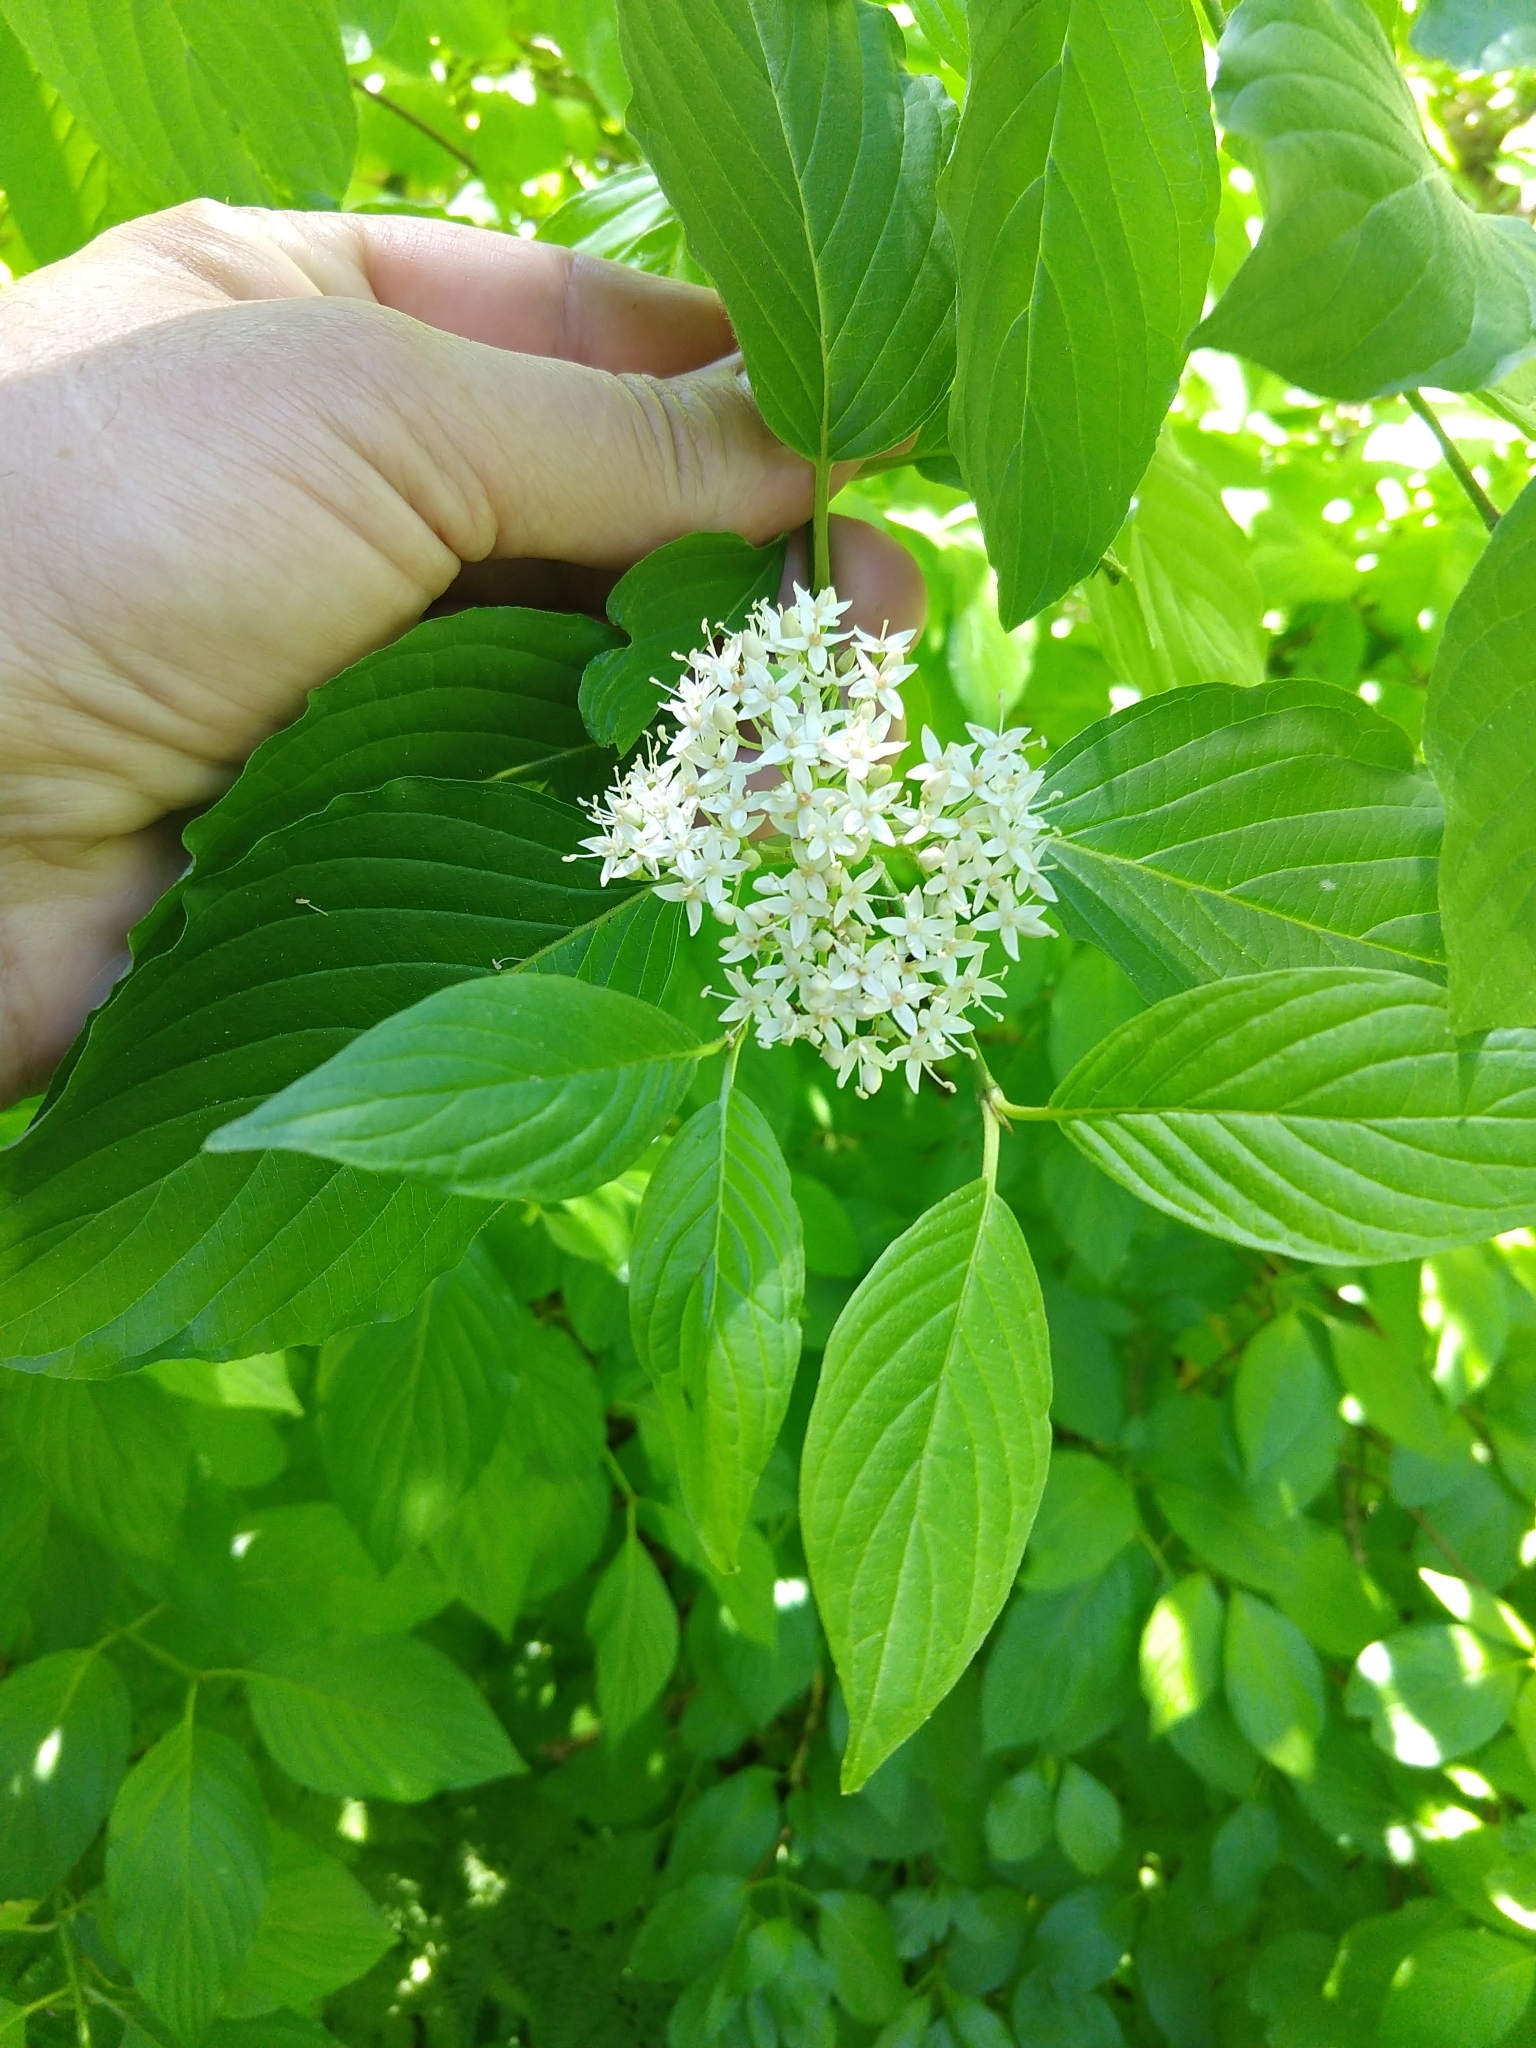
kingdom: Plantae
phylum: Tracheophyta
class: Magnoliopsida
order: Cornales
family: Cornaceae
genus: Cornus
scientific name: Cornus sericea
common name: Red-osier dogwood
